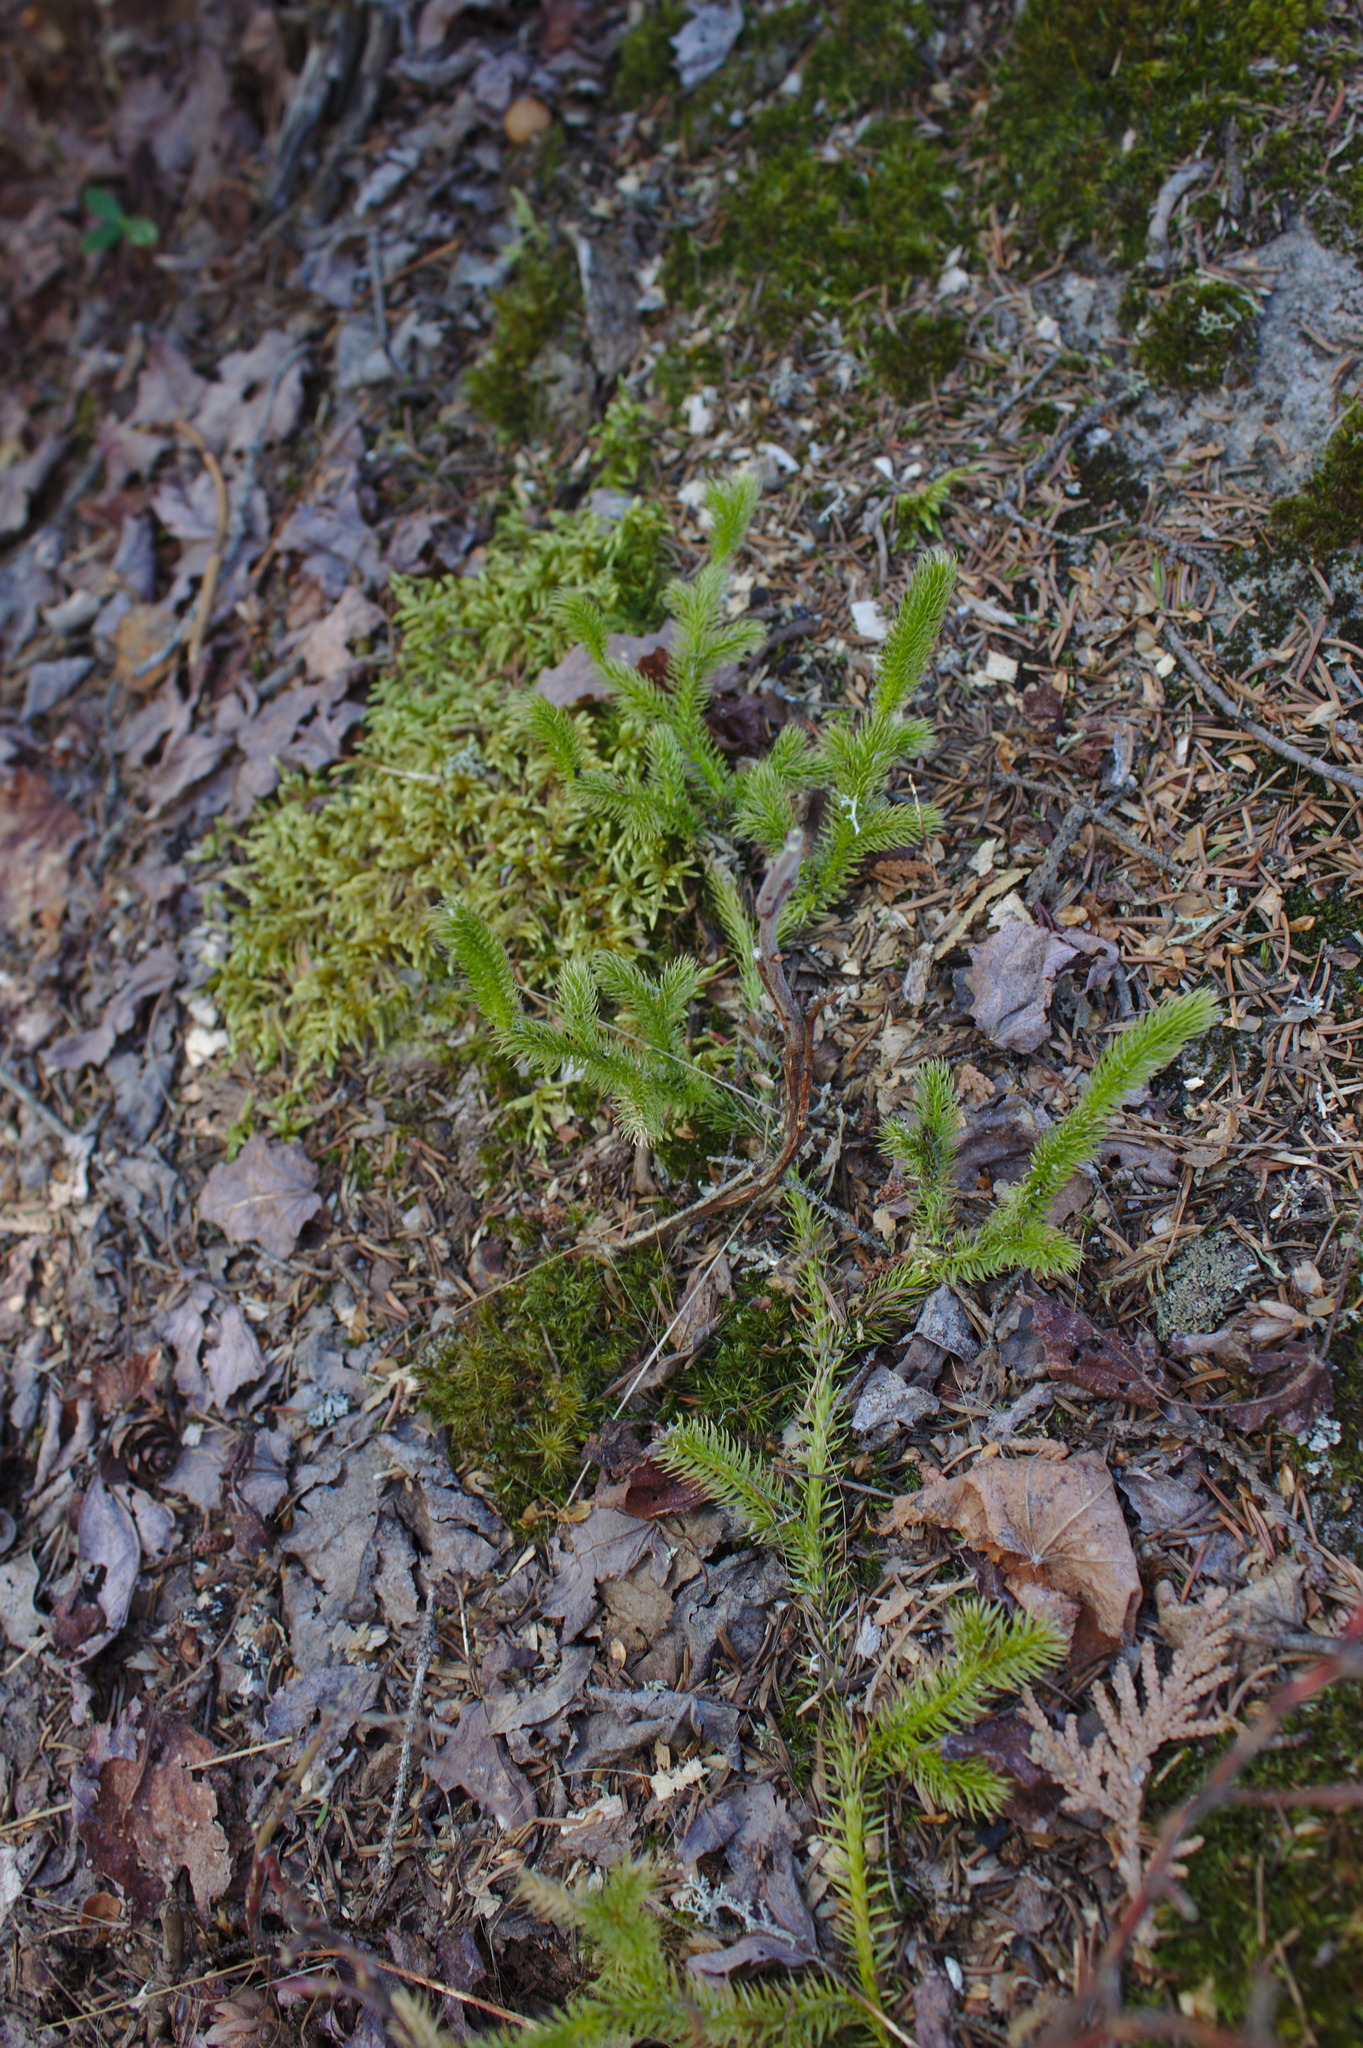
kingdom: Plantae
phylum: Tracheophyta
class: Lycopodiopsida
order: Lycopodiales
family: Lycopodiaceae
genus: Lycopodium
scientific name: Lycopodium clavatum
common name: Stag's-horn clubmoss
